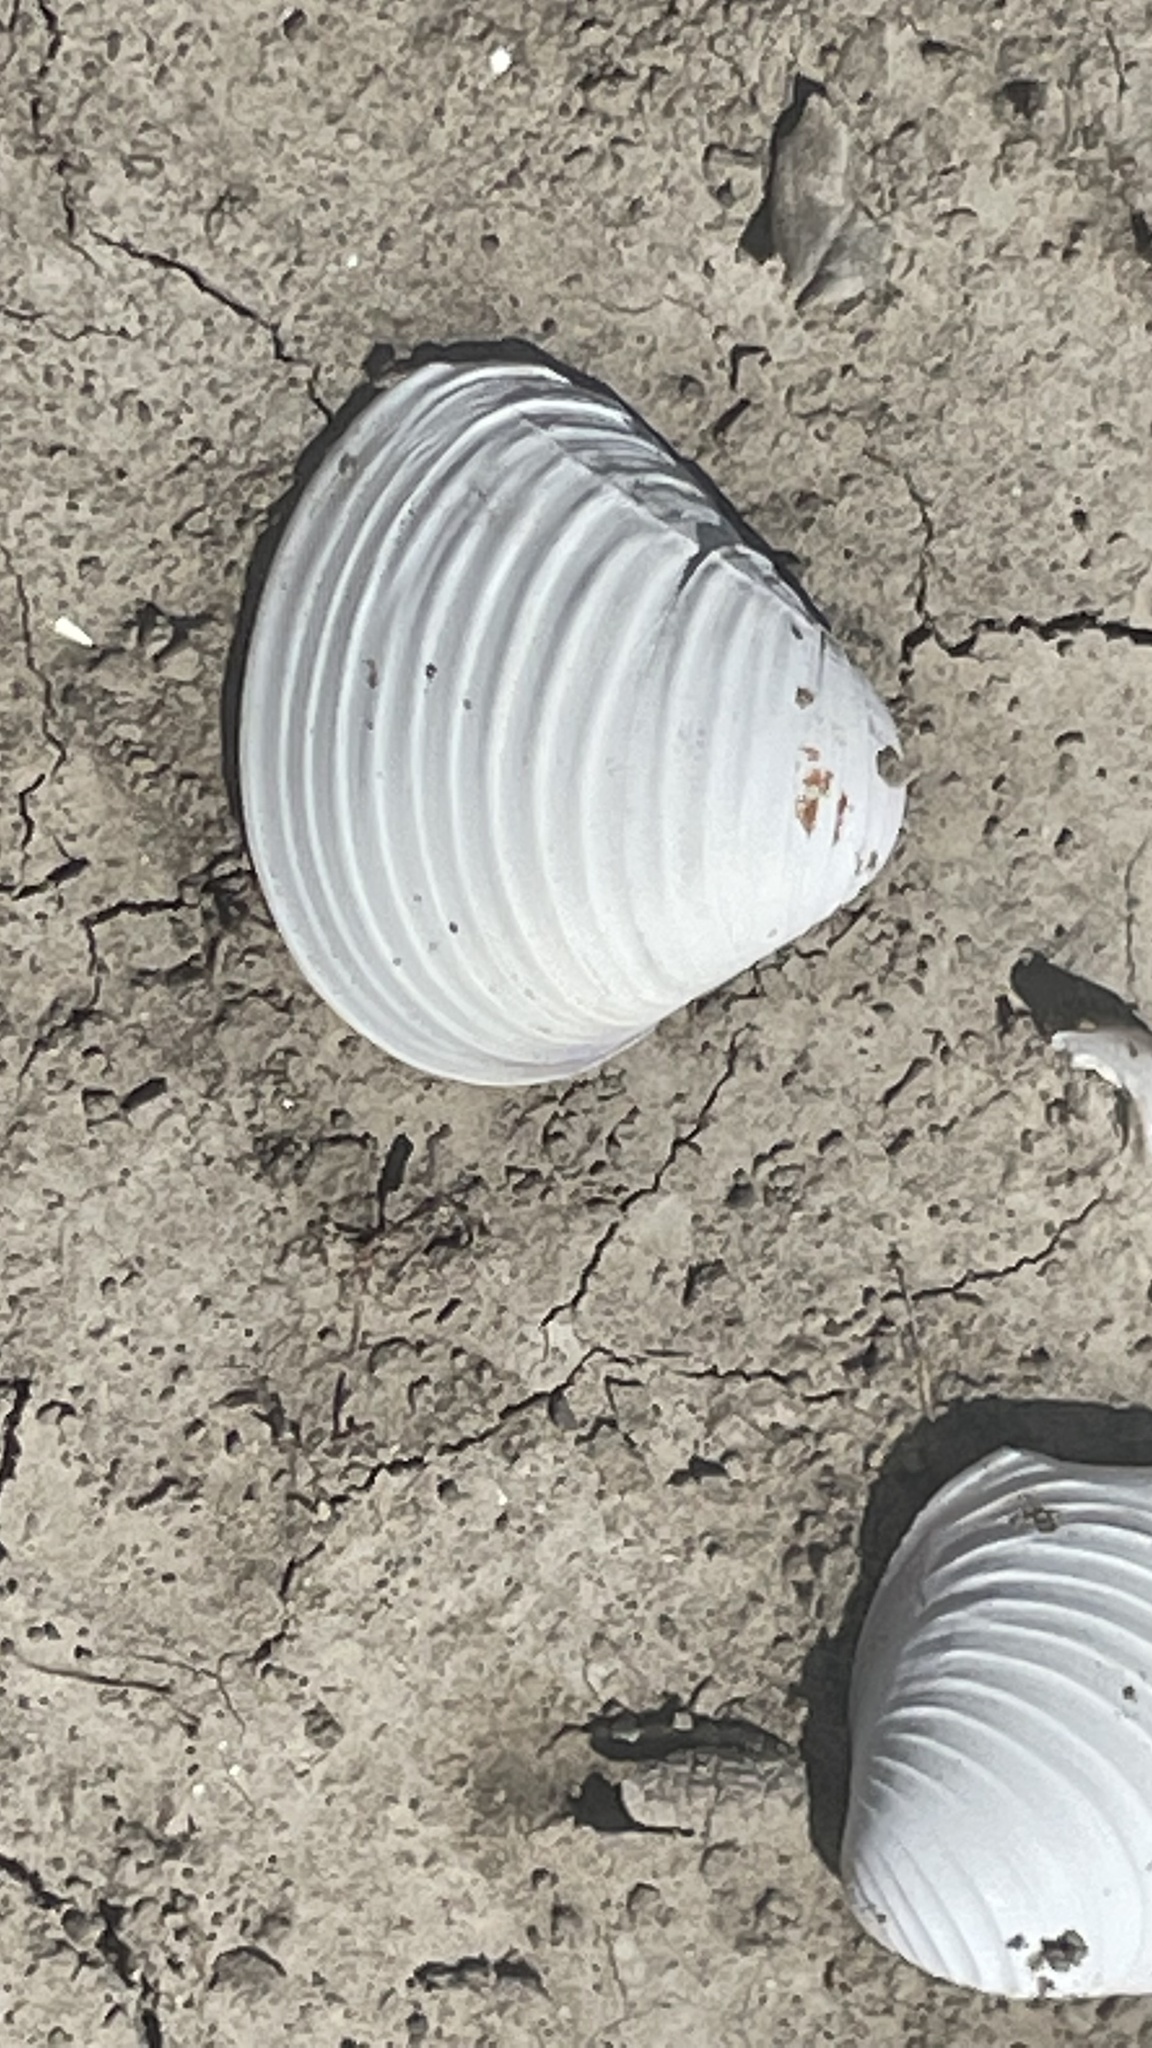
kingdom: Animalia
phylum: Mollusca
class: Bivalvia
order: Venerida
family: Cyrenidae
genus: Corbicula
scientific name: Corbicula fluminea
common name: Asian clam
